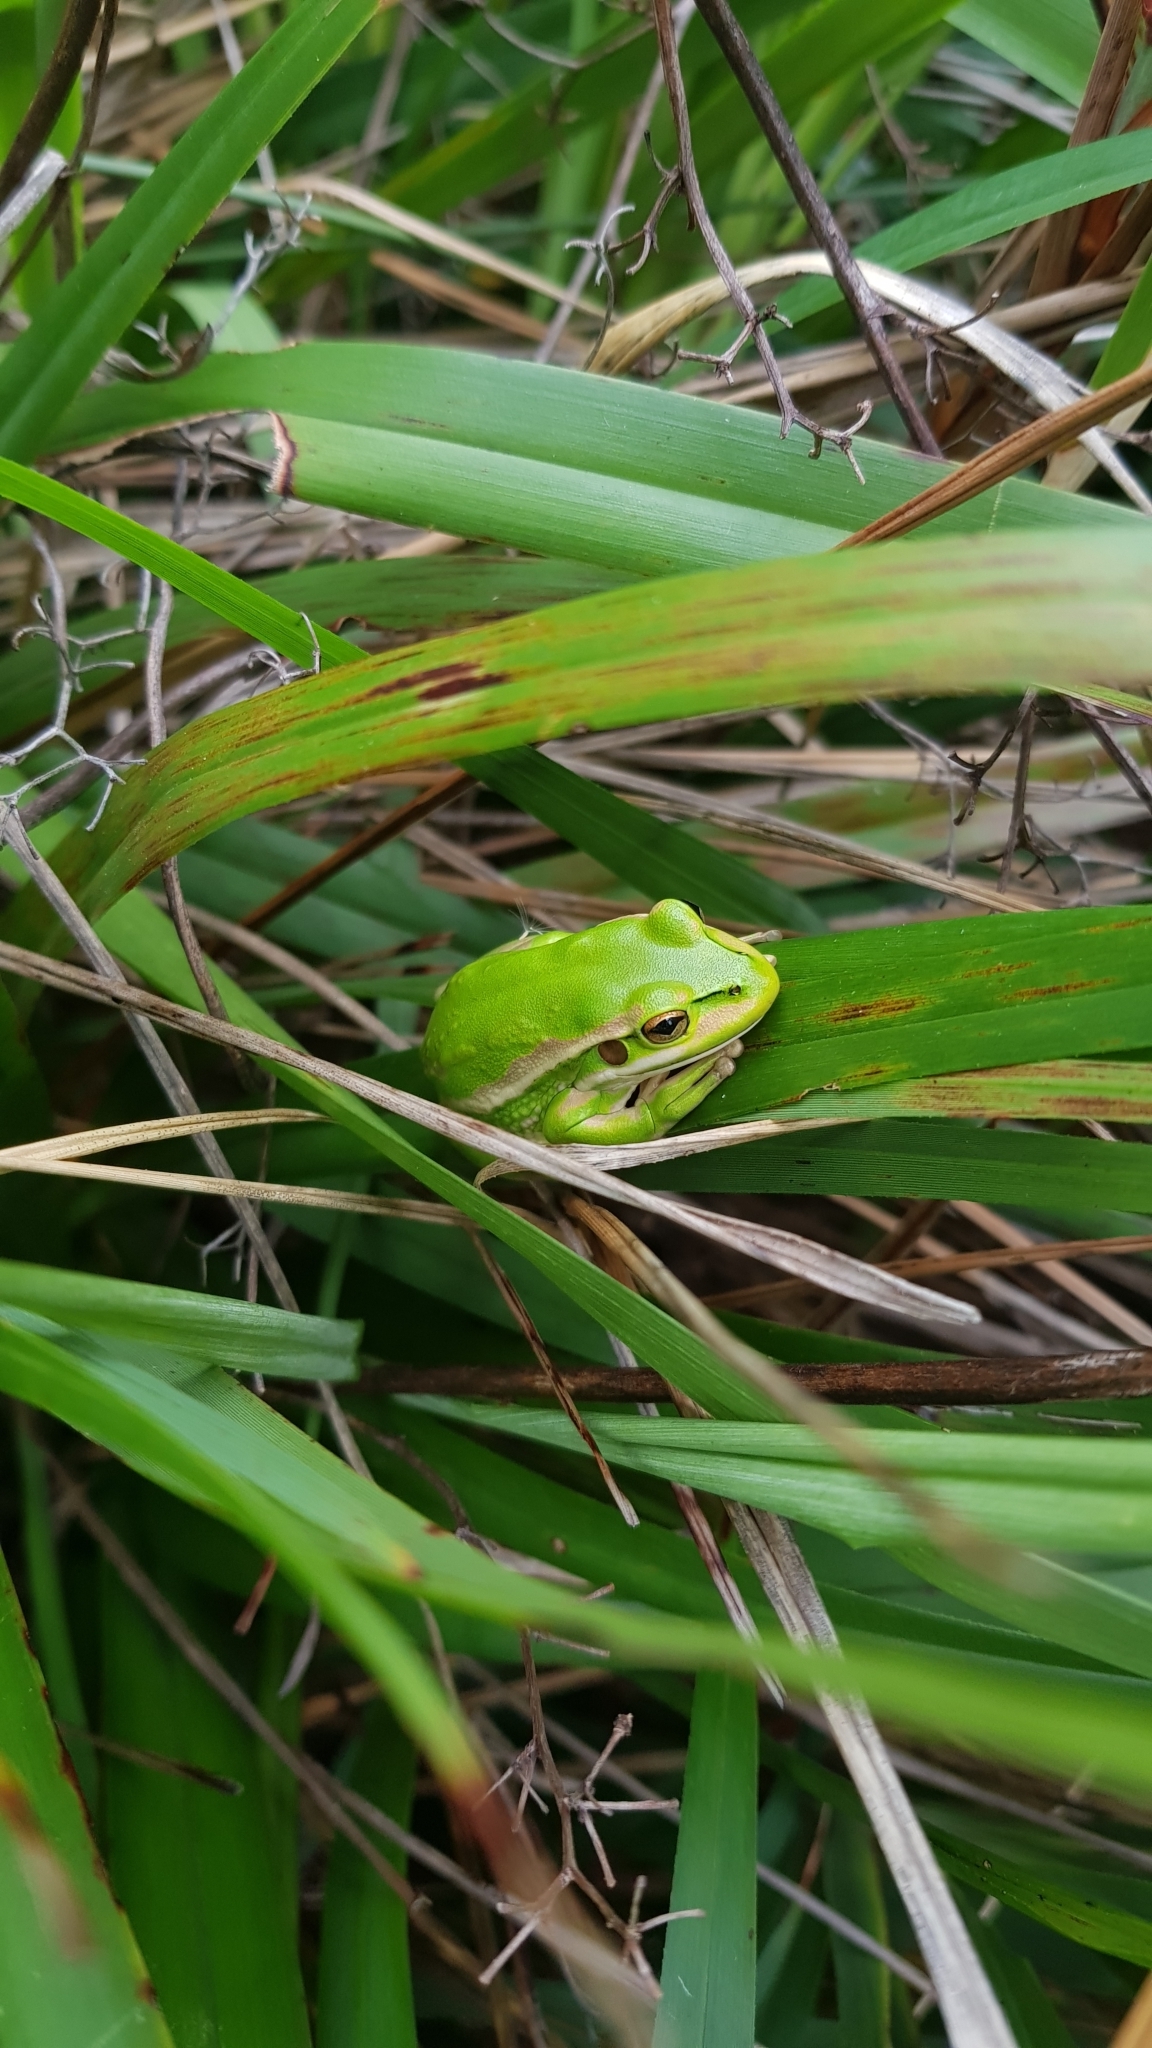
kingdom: Animalia
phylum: Chordata
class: Amphibia
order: Anura
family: Pelodryadidae
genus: Ranoidea
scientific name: Ranoidea aurea
